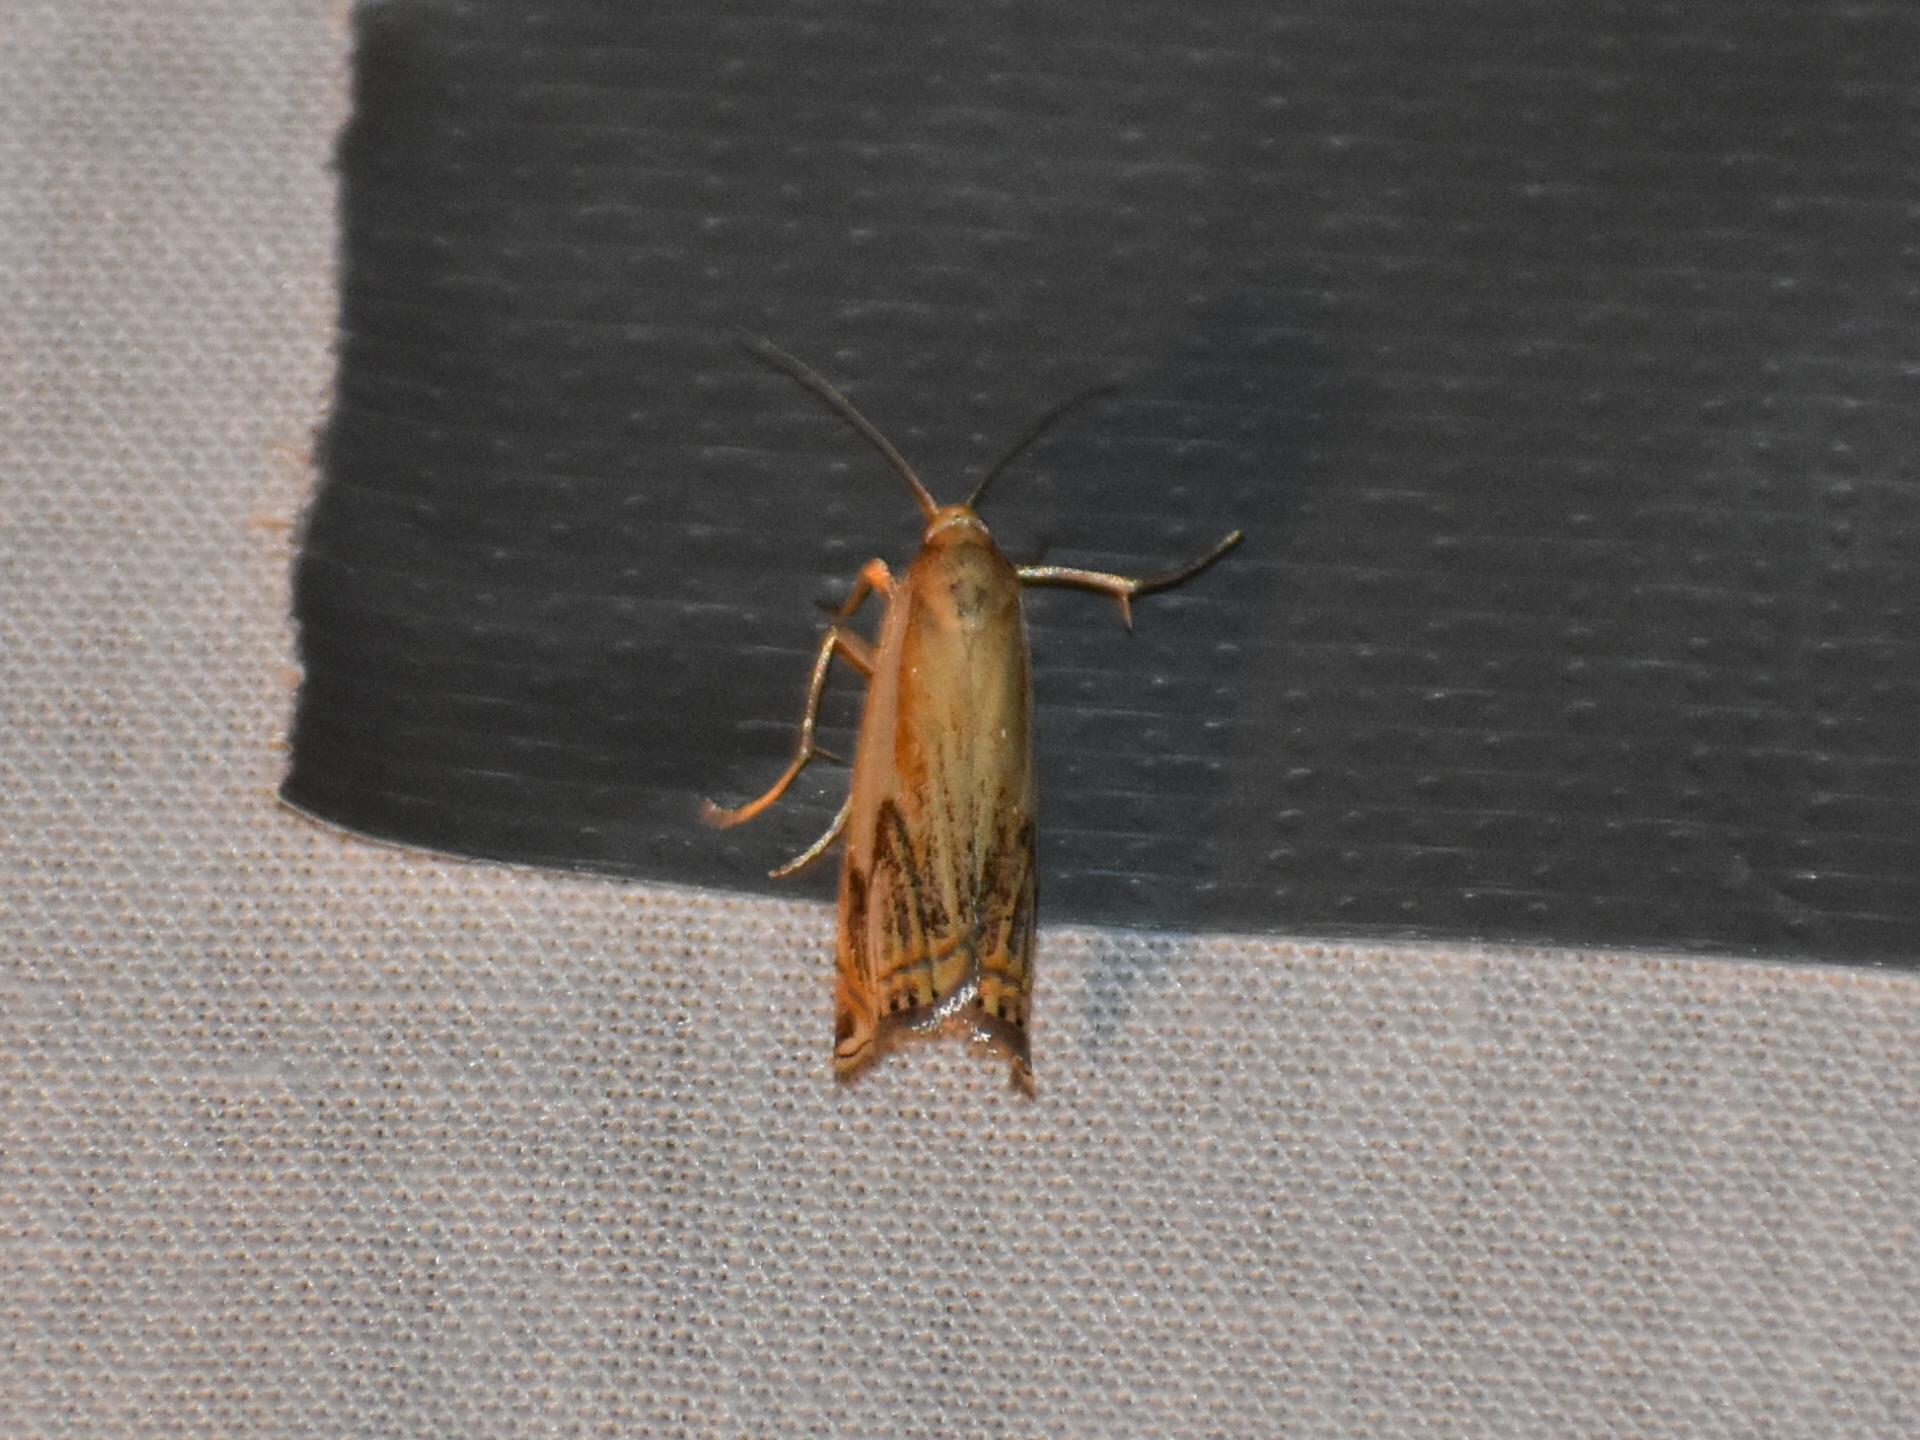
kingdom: Animalia
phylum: Arthropoda
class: Insecta
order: Lepidoptera
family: Crambidae
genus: Crambus
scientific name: Crambus agitatellus
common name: Double-banded grass-veneer
